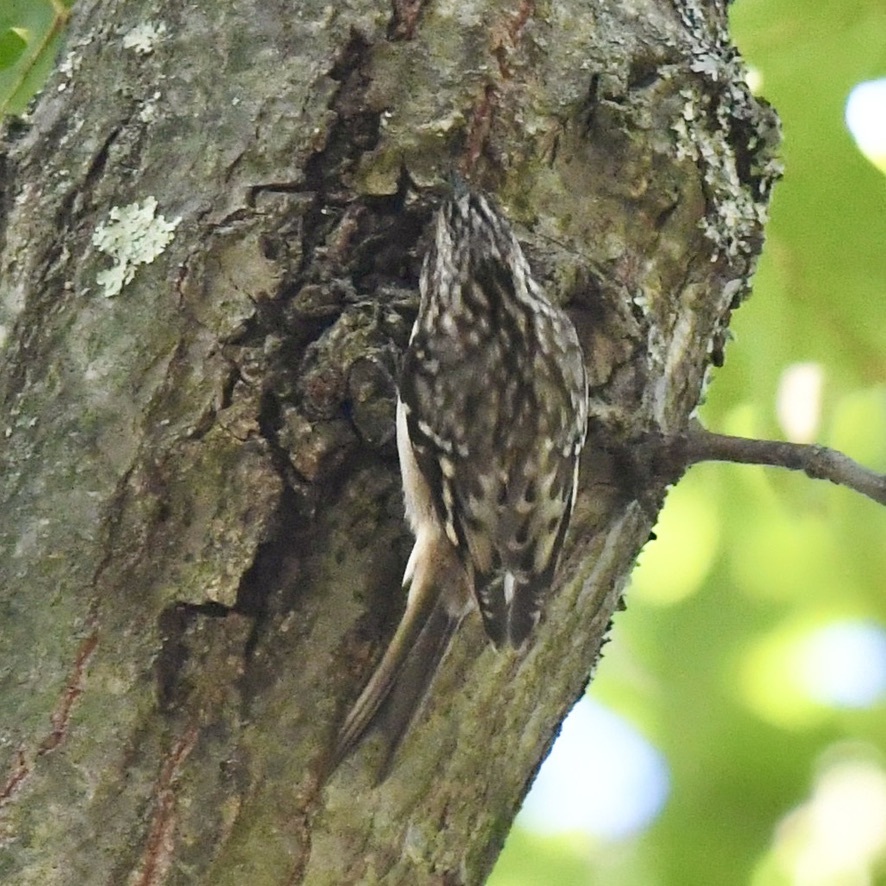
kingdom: Animalia
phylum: Chordata
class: Aves
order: Passeriformes
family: Certhiidae
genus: Certhia
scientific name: Certhia americana
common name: Brown creeper
